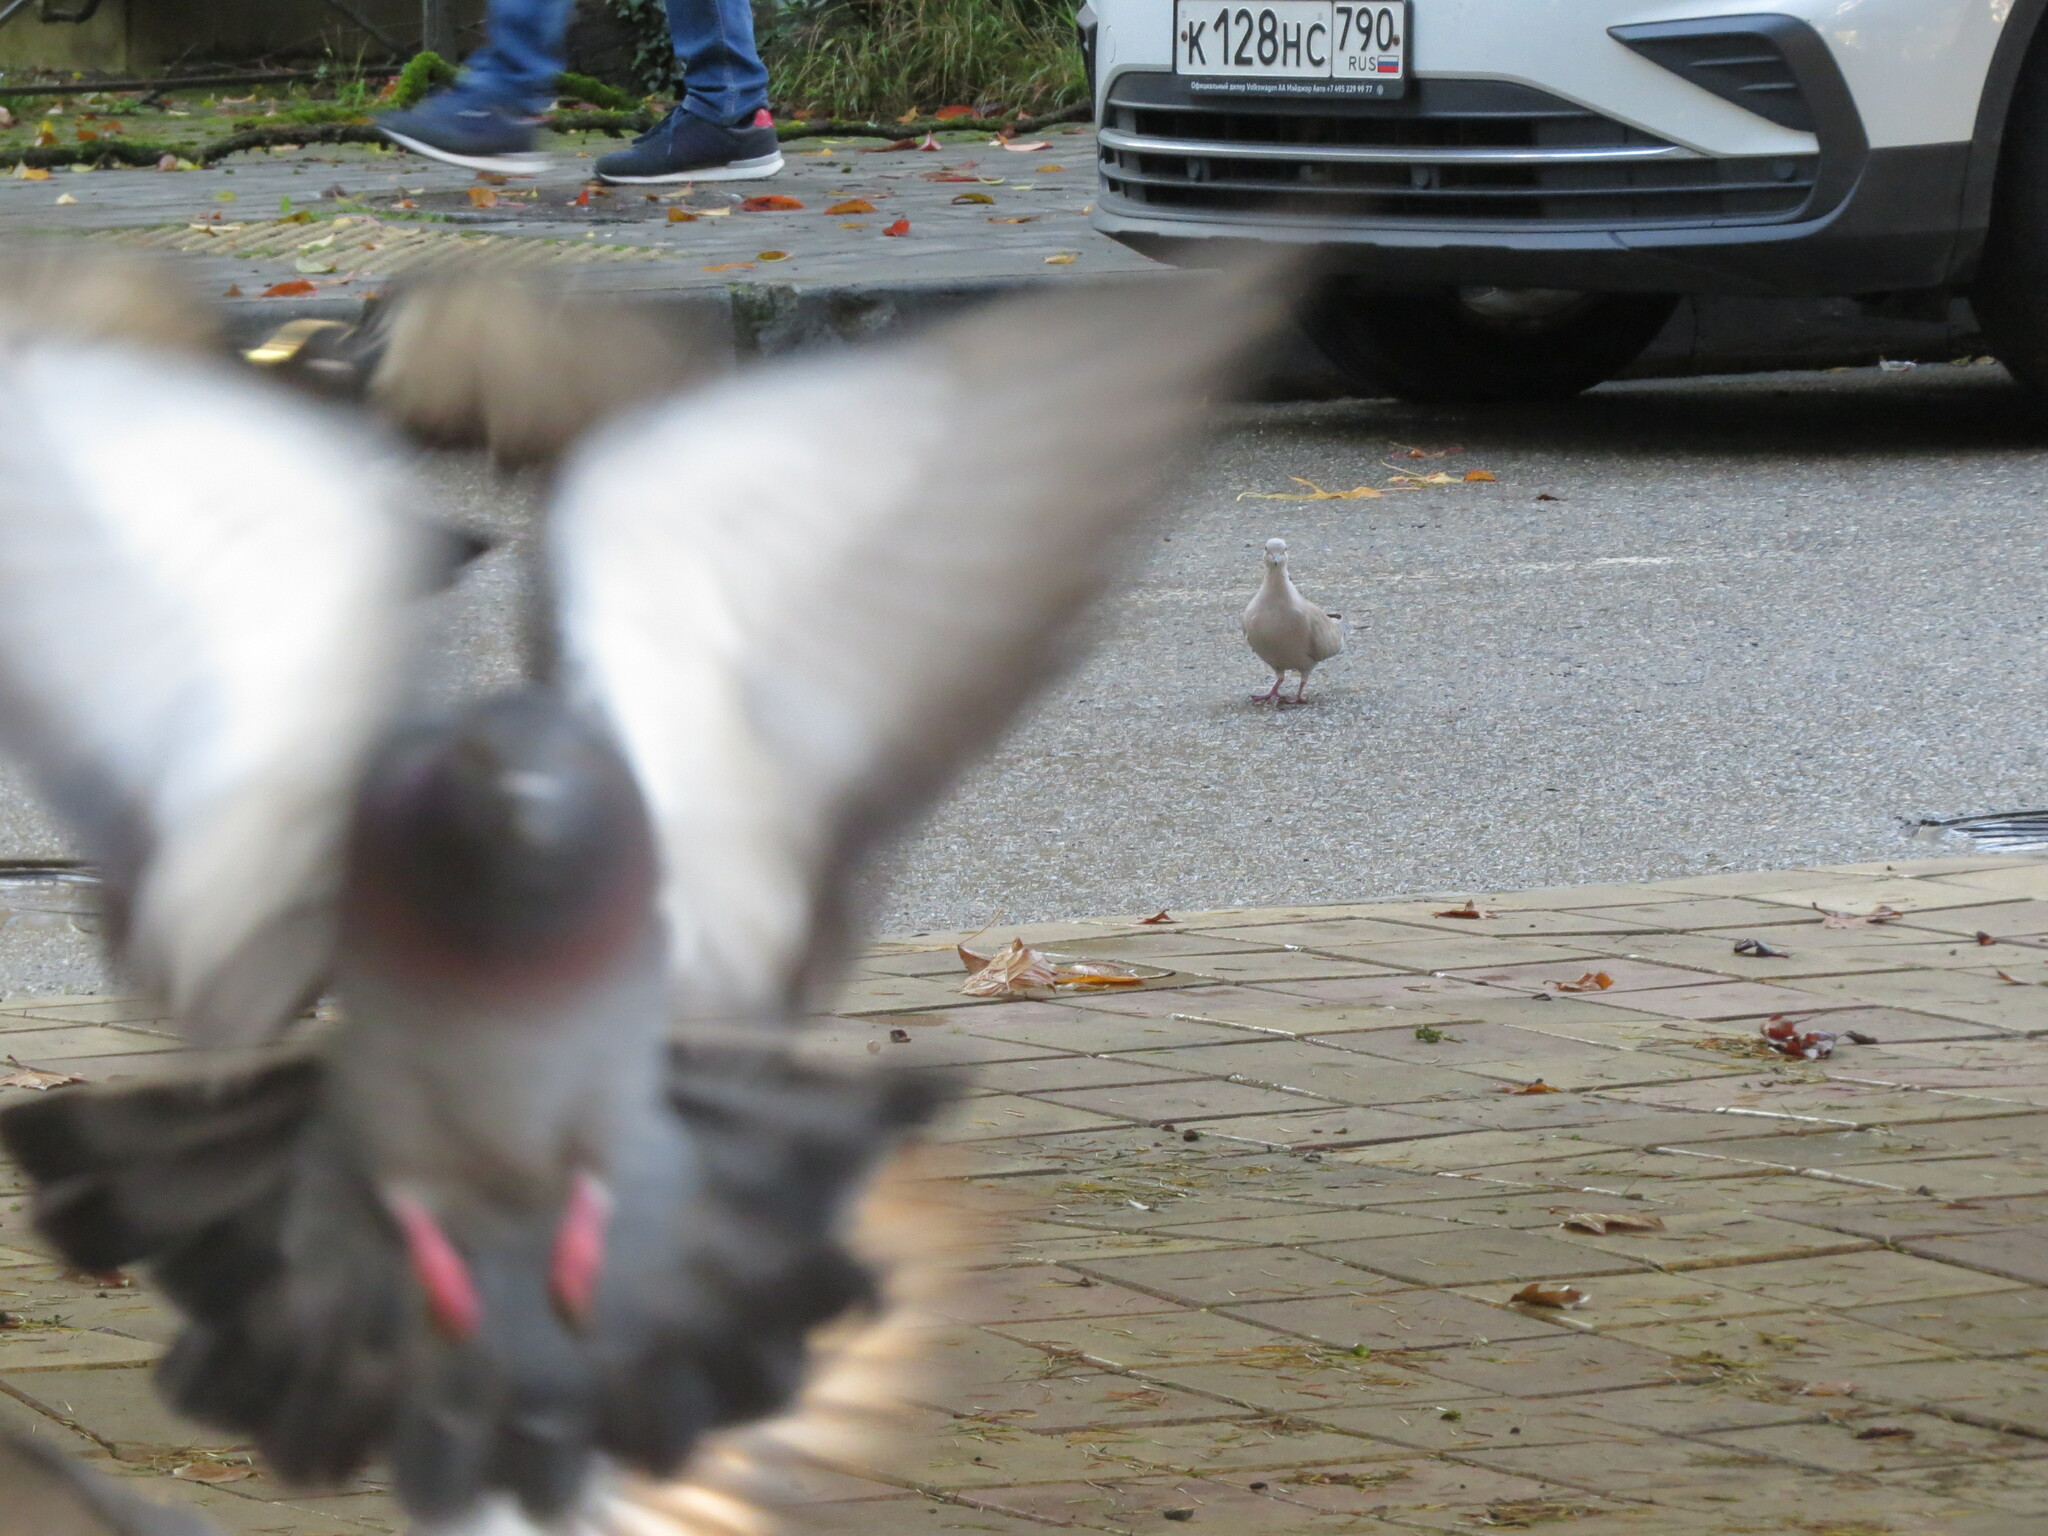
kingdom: Animalia
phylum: Chordata
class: Aves
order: Columbiformes
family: Columbidae
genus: Streptopelia
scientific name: Streptopelia decaocto
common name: Eurasian collared dove
